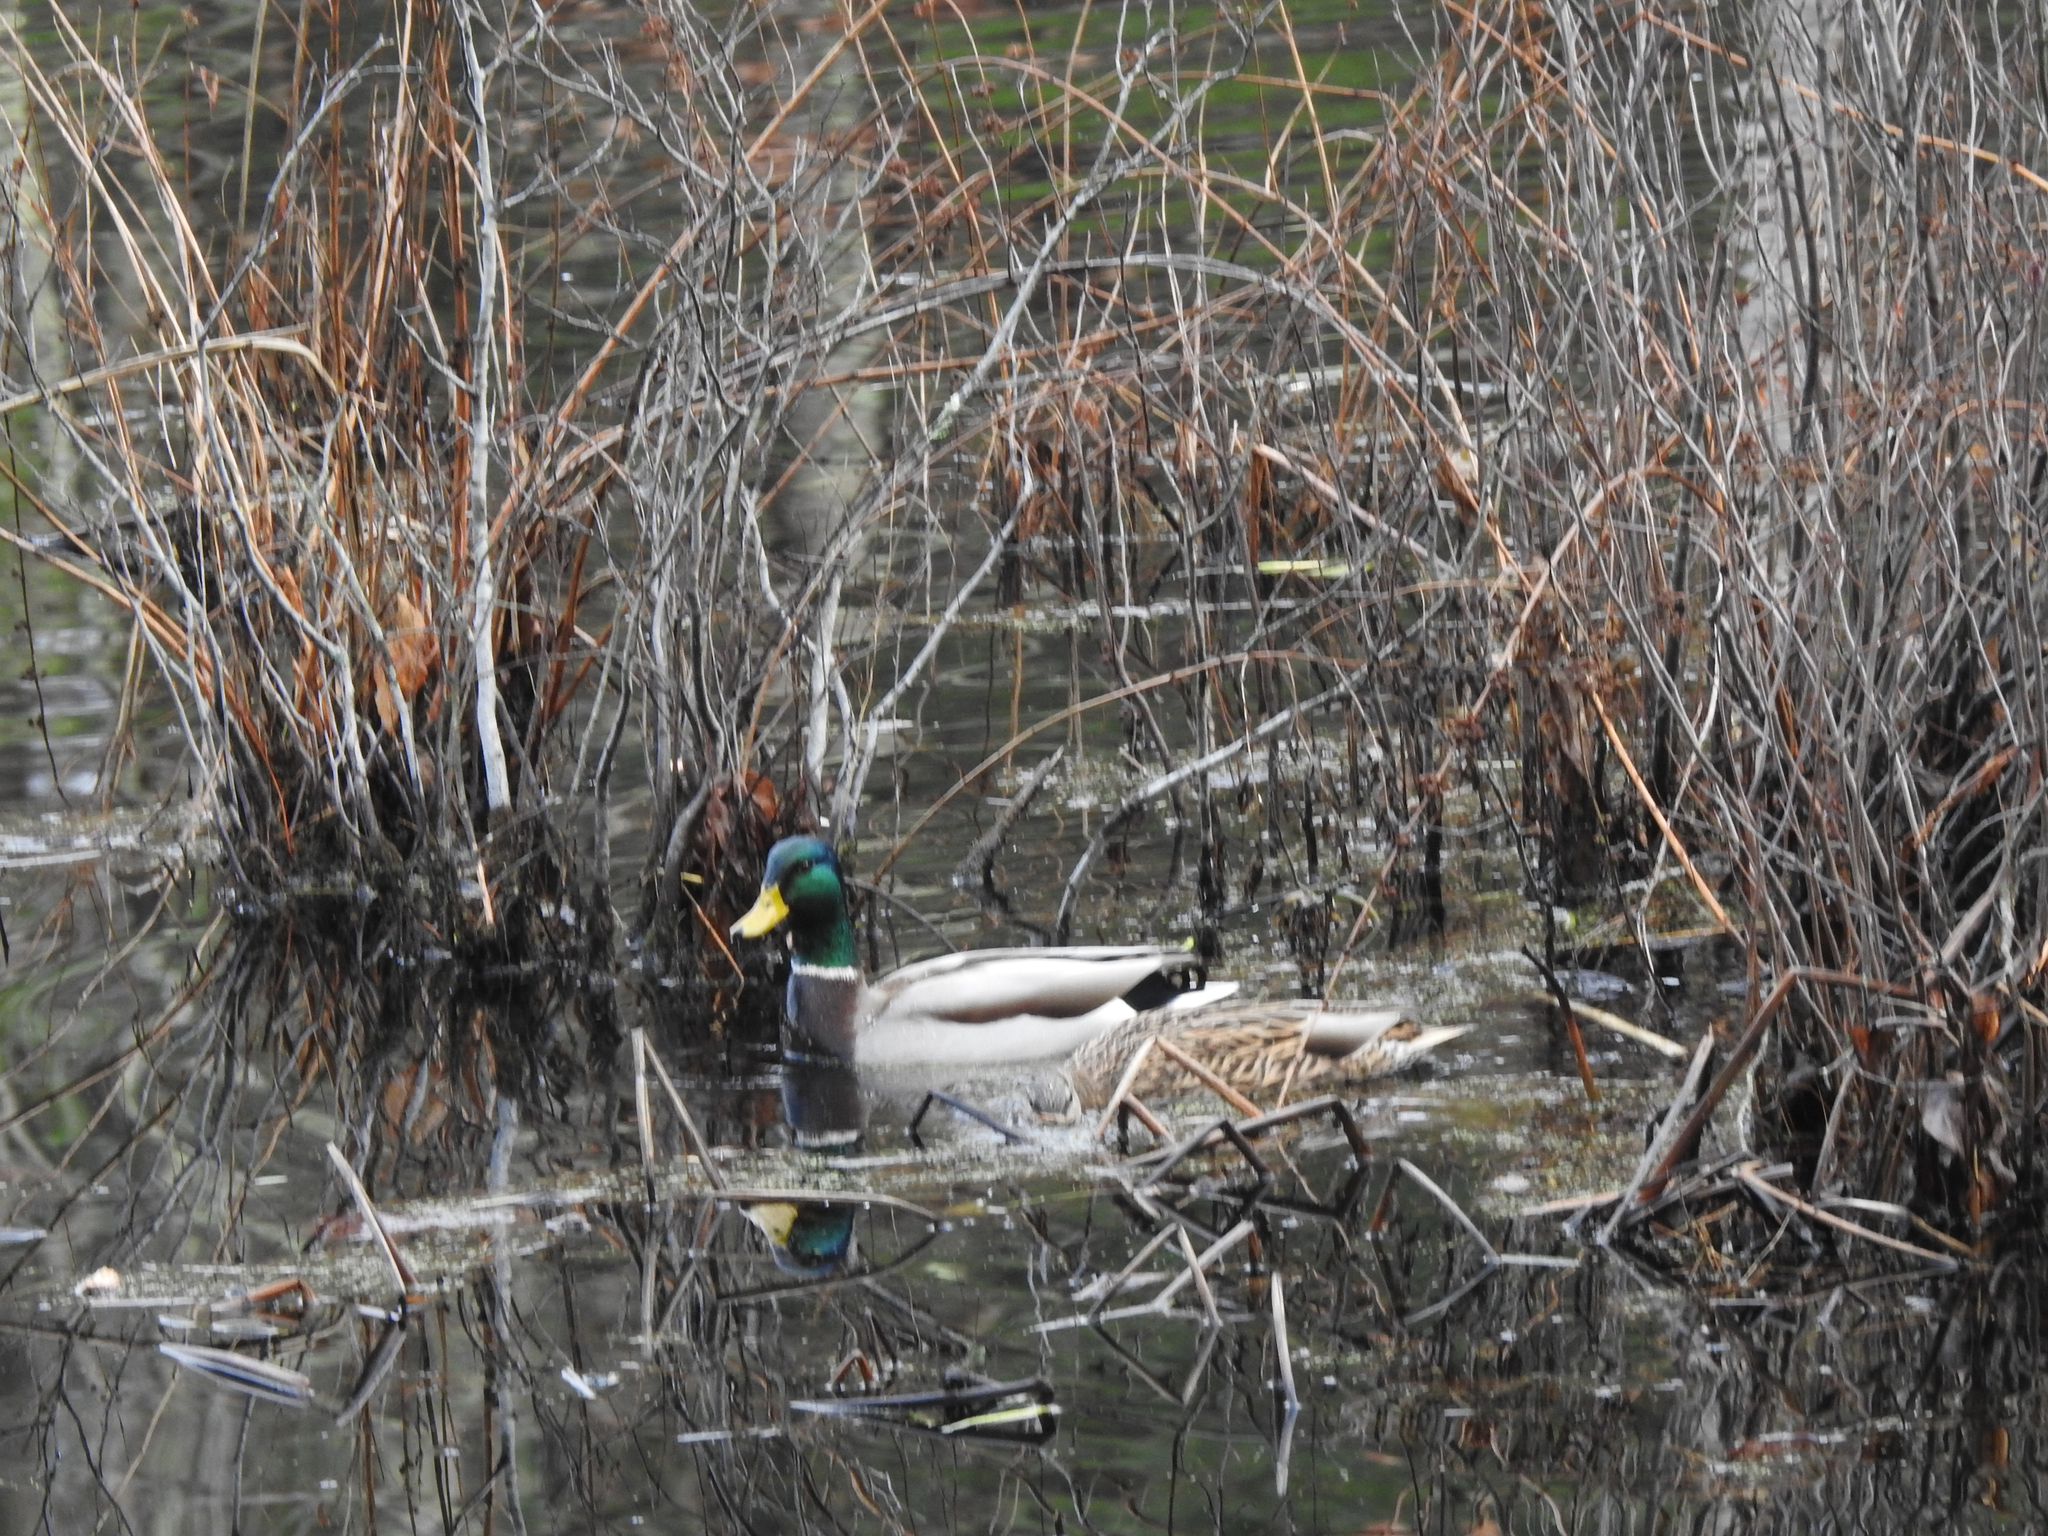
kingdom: Animalia
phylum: Chordata
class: Aves
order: Anseriformes
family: Anatidae
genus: Anas
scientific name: Anas platyrhynchos
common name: Mallard
